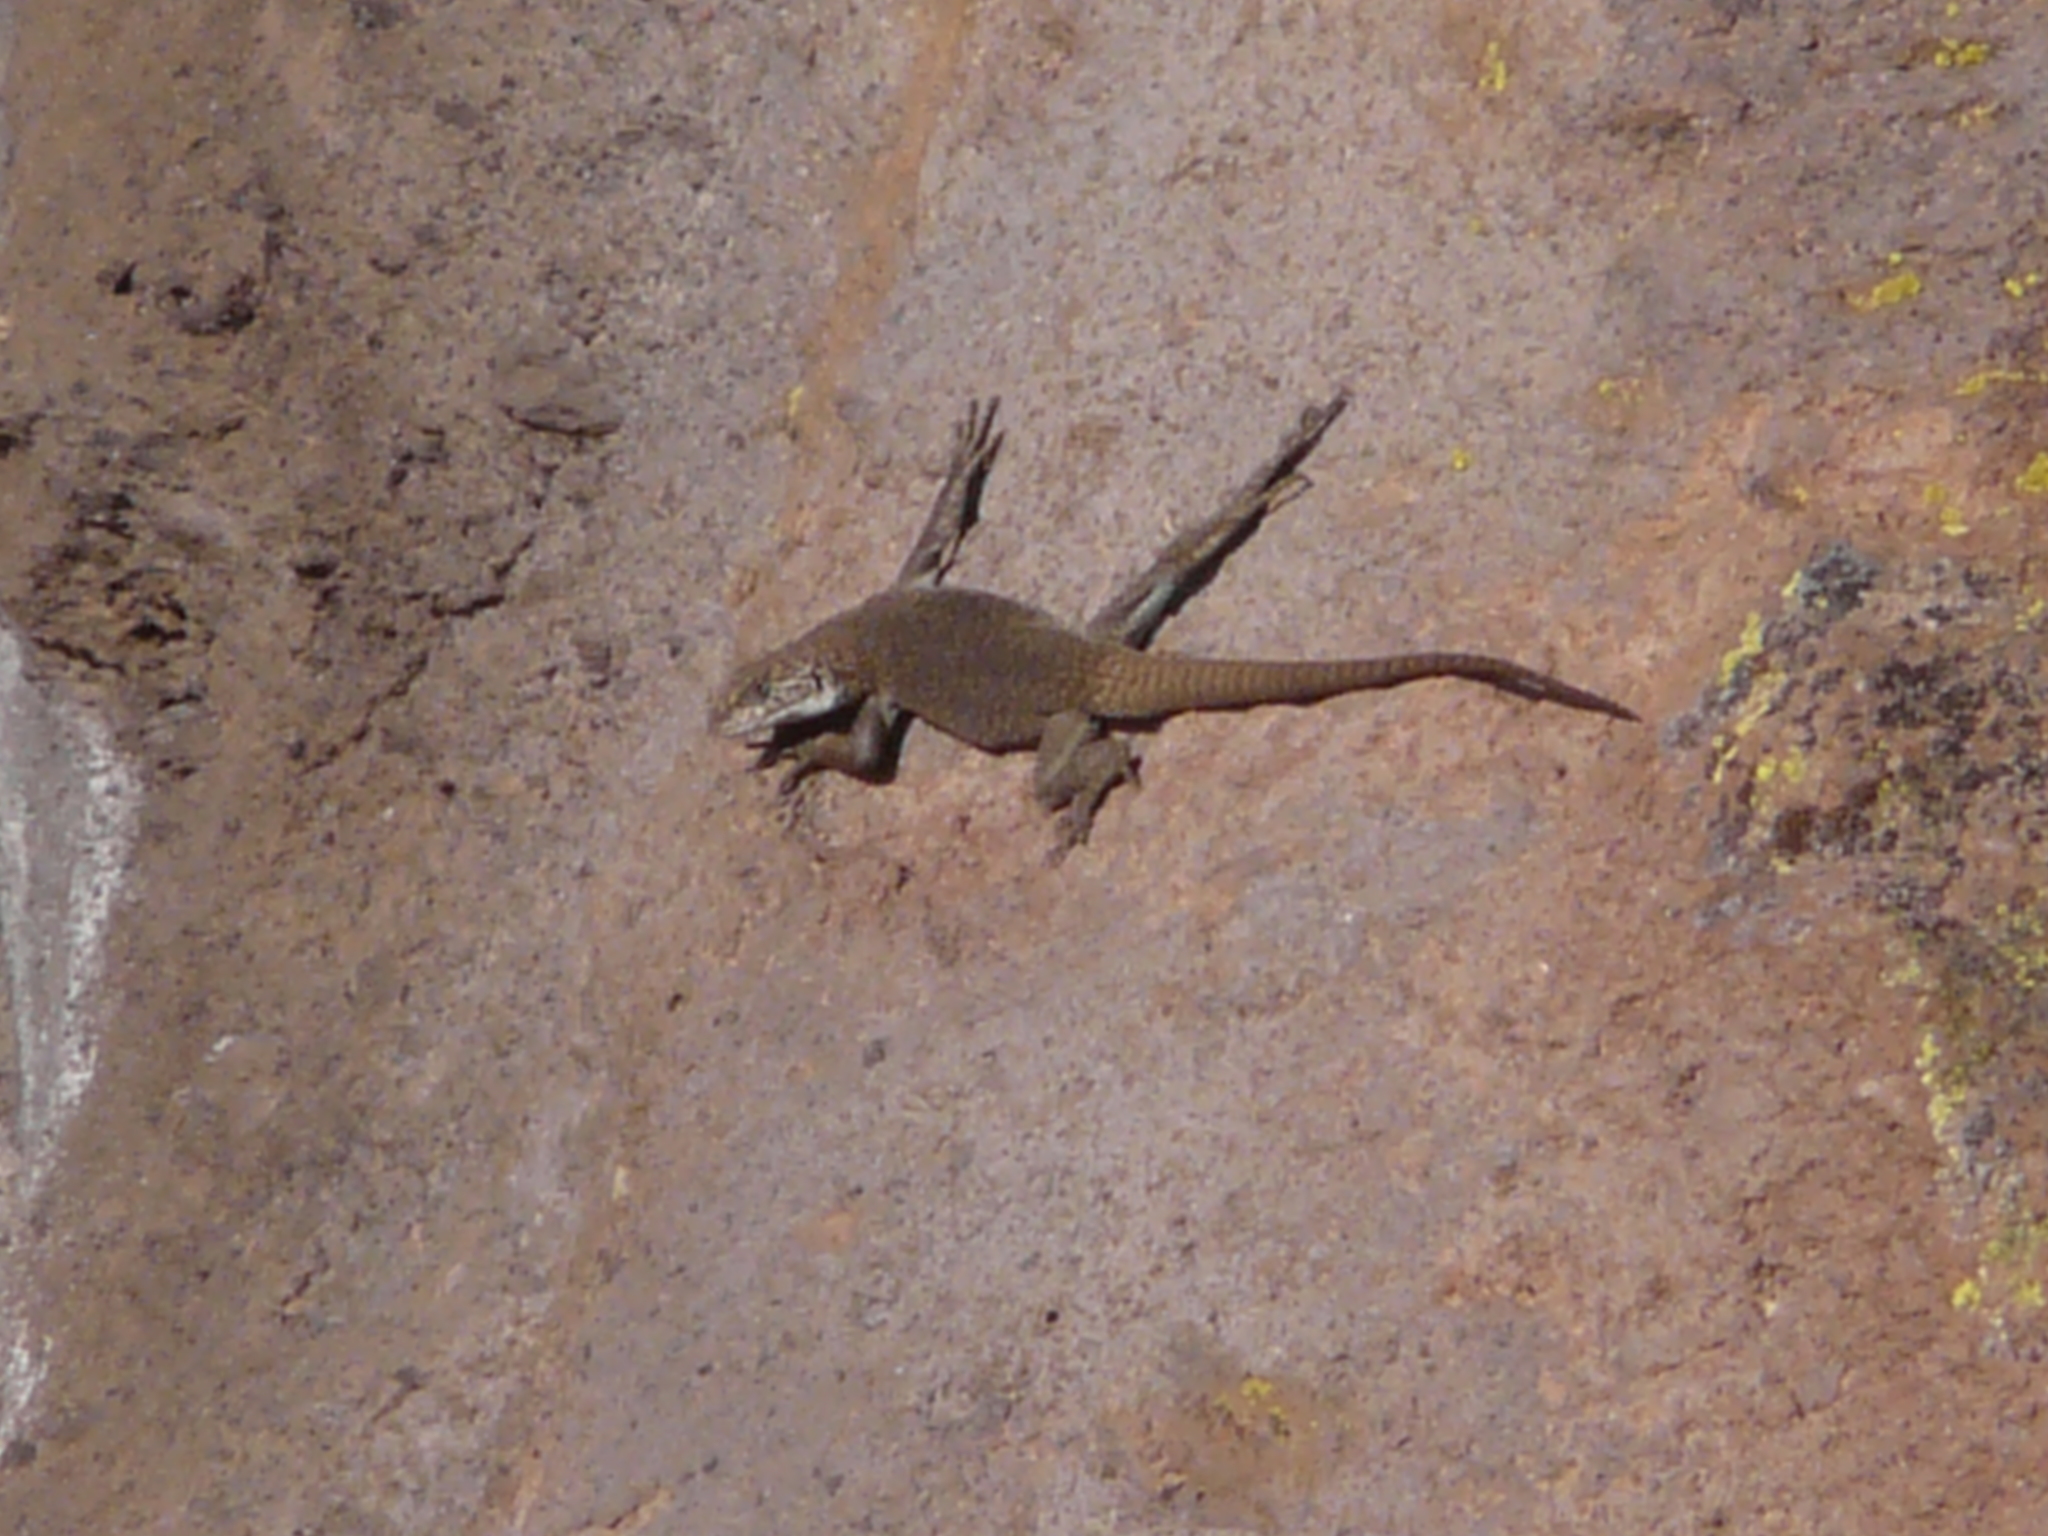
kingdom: Animalia
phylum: Chordata
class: Squamata
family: Liolaemidae
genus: Liolaemus
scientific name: Liolaemus austromendocinus
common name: Austromendocino tree iguana
